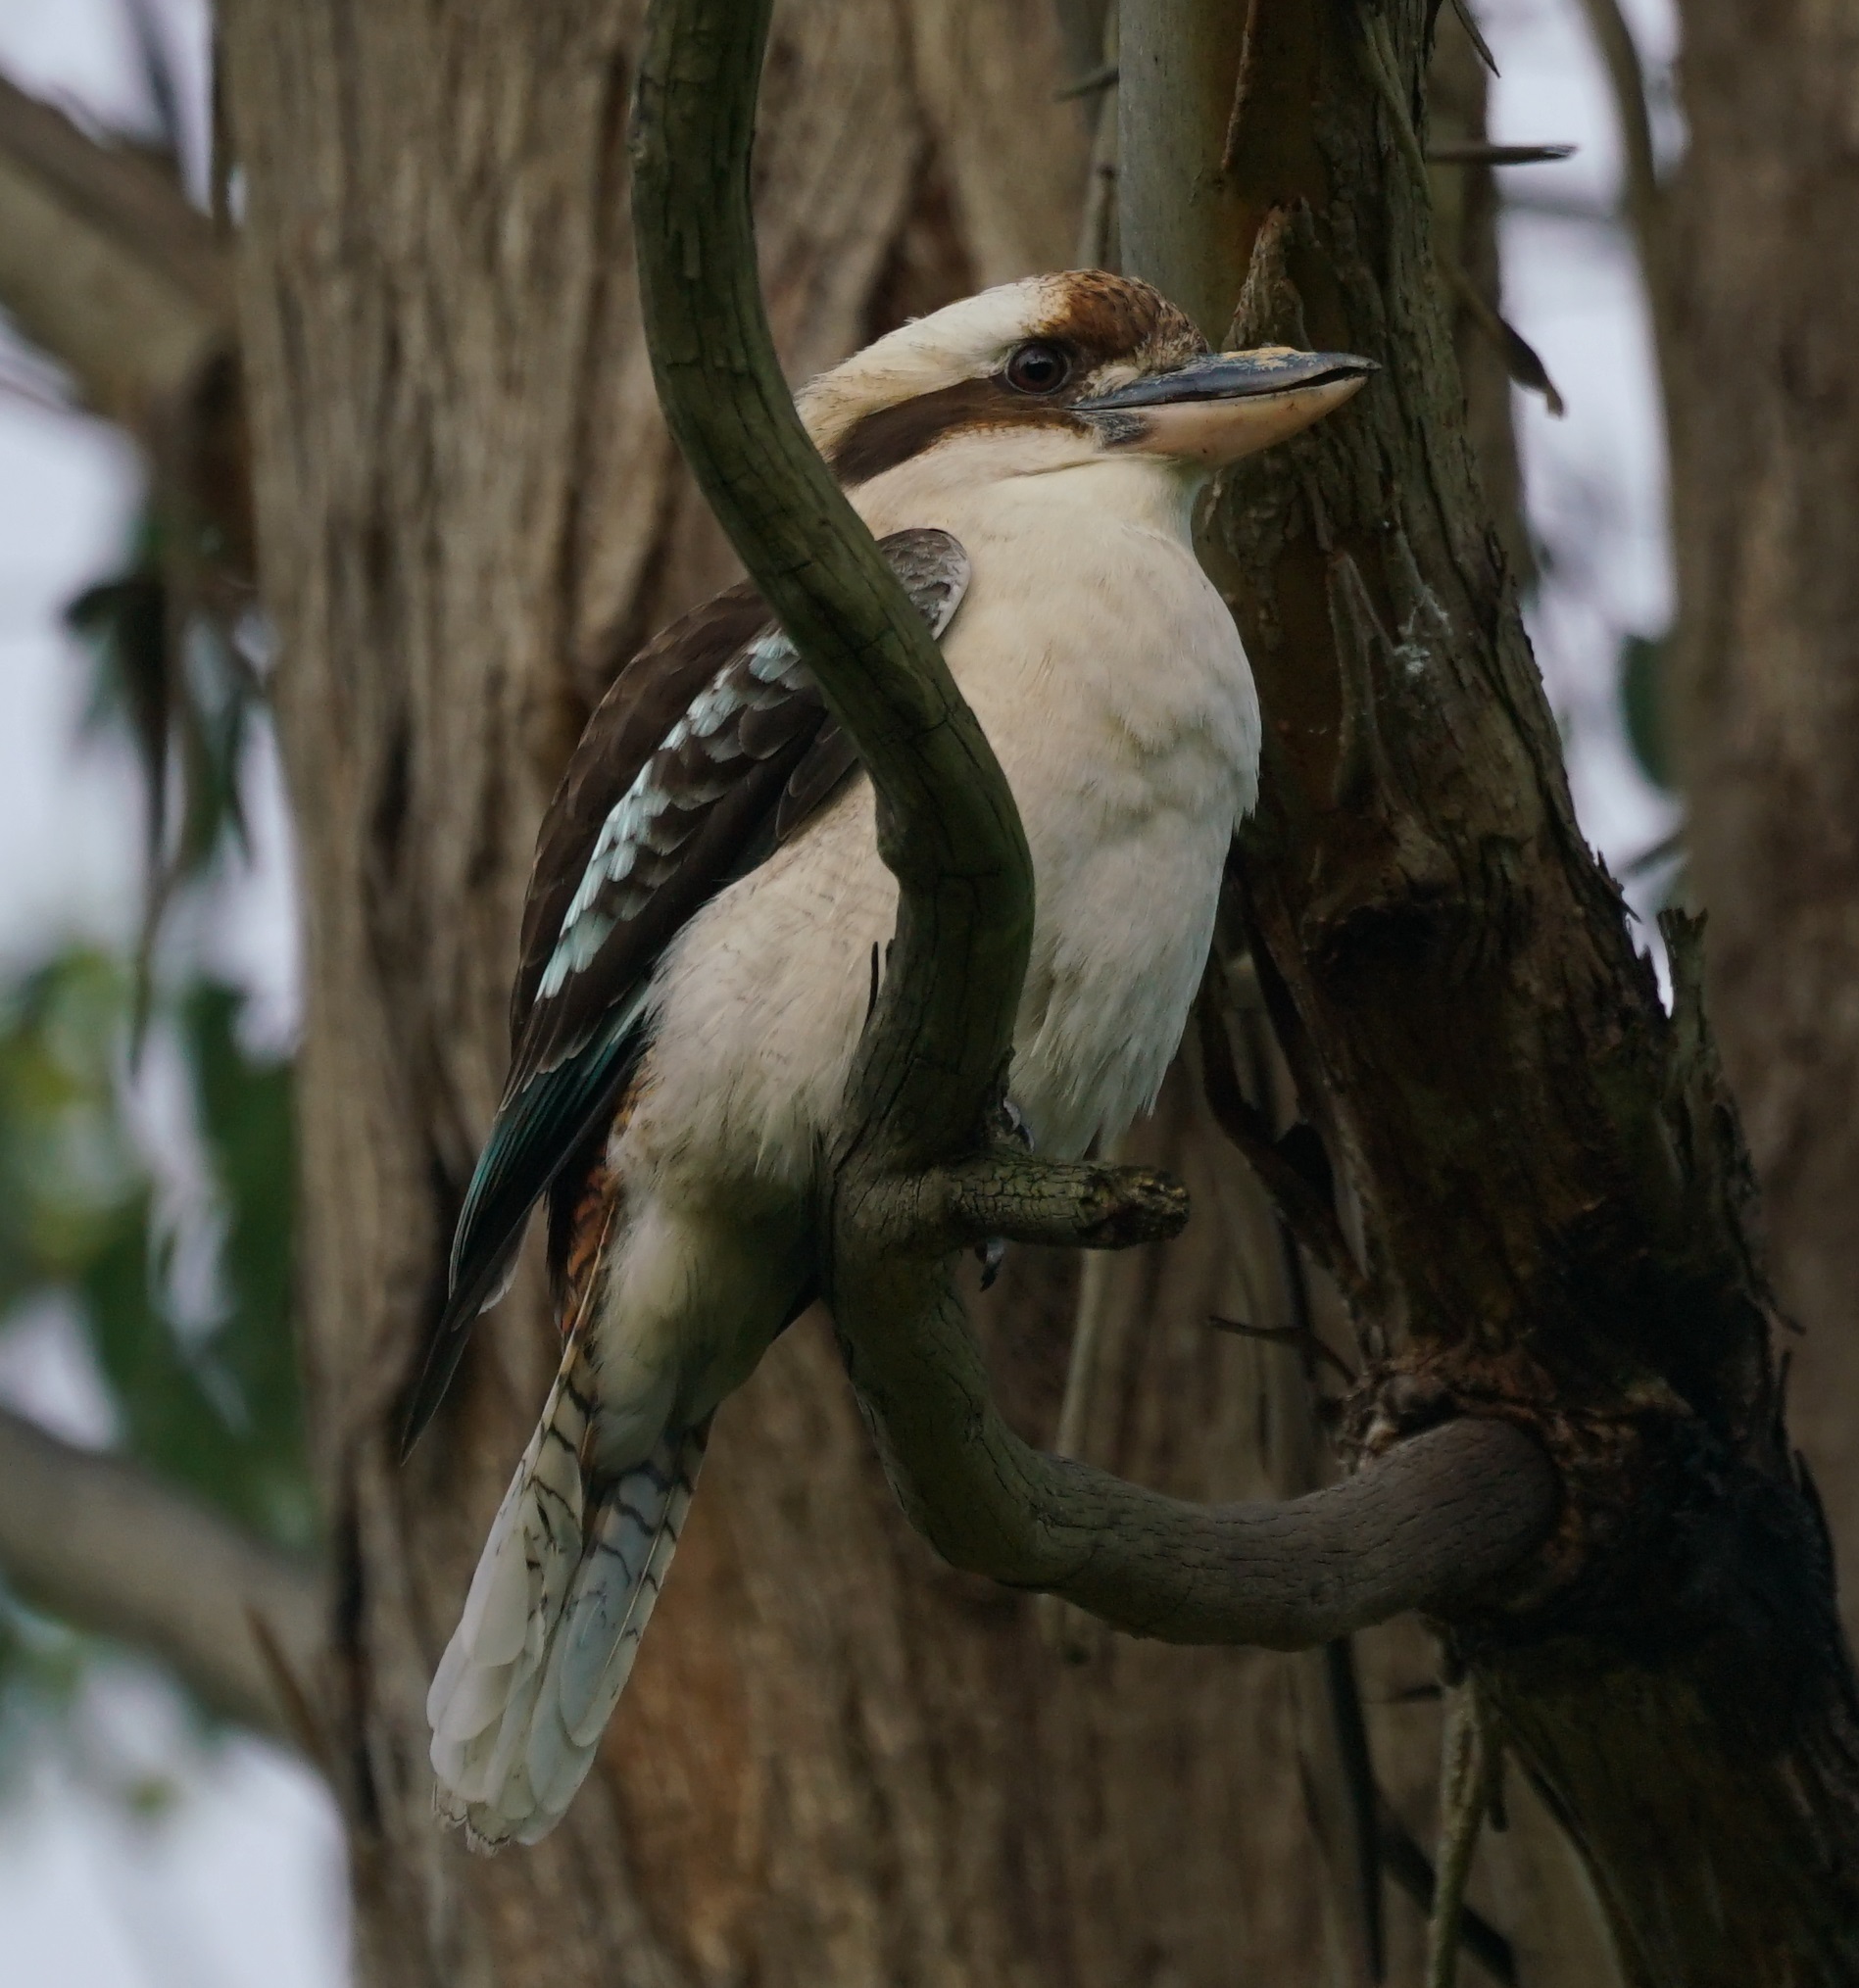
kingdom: Animalia
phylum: Chordata
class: Aves
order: Coraciiformes
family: Alcedinidae
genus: Dacelo
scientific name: Dacelo novaeguineae
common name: Laughing kookaburra
